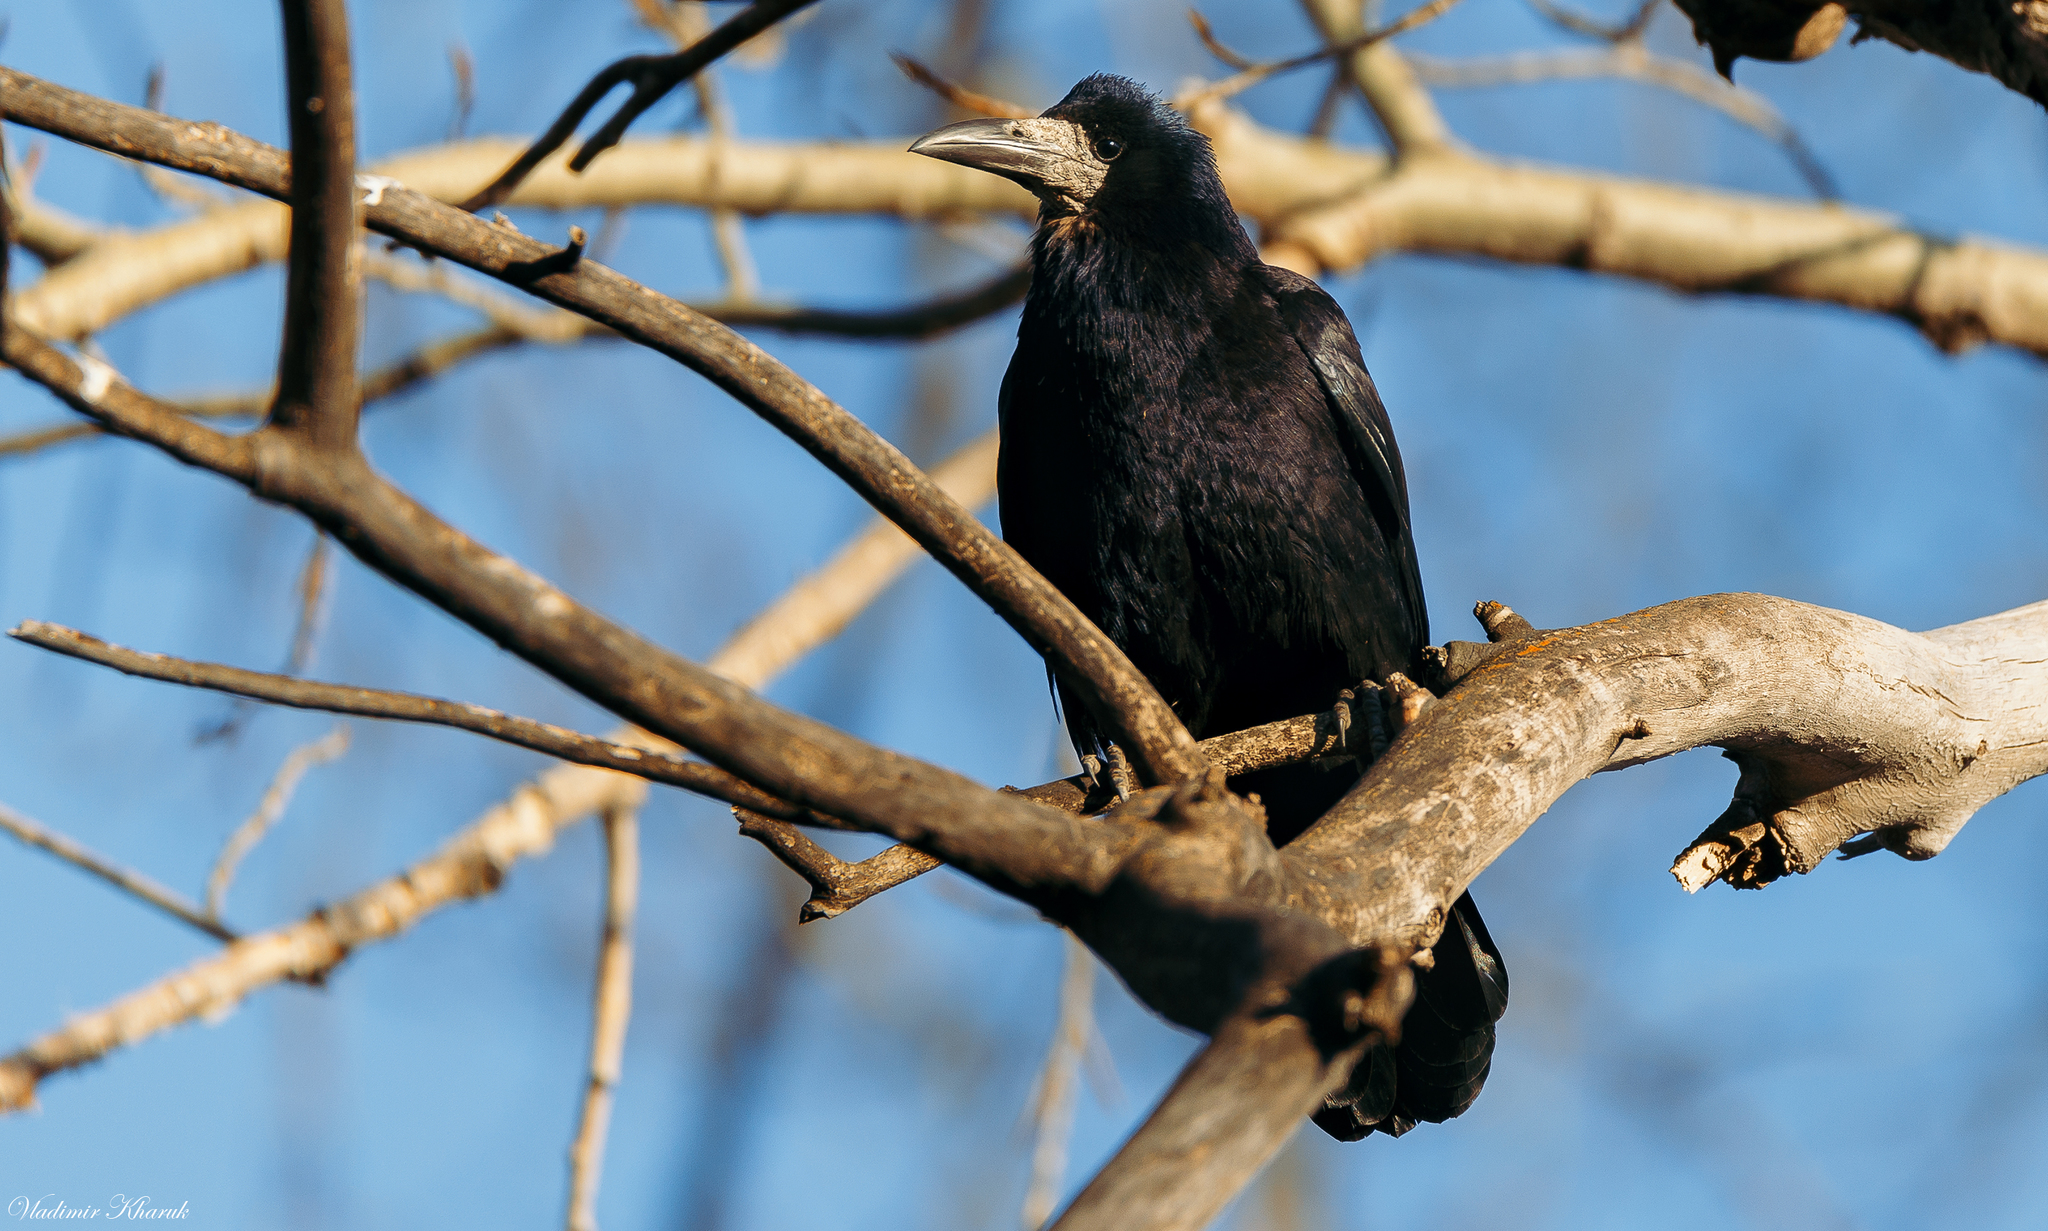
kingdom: Animalia
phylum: Chordata
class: Aves
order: Passeriformes
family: Corvidae
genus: Corvus
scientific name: Corvus frugilegus
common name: Rook
